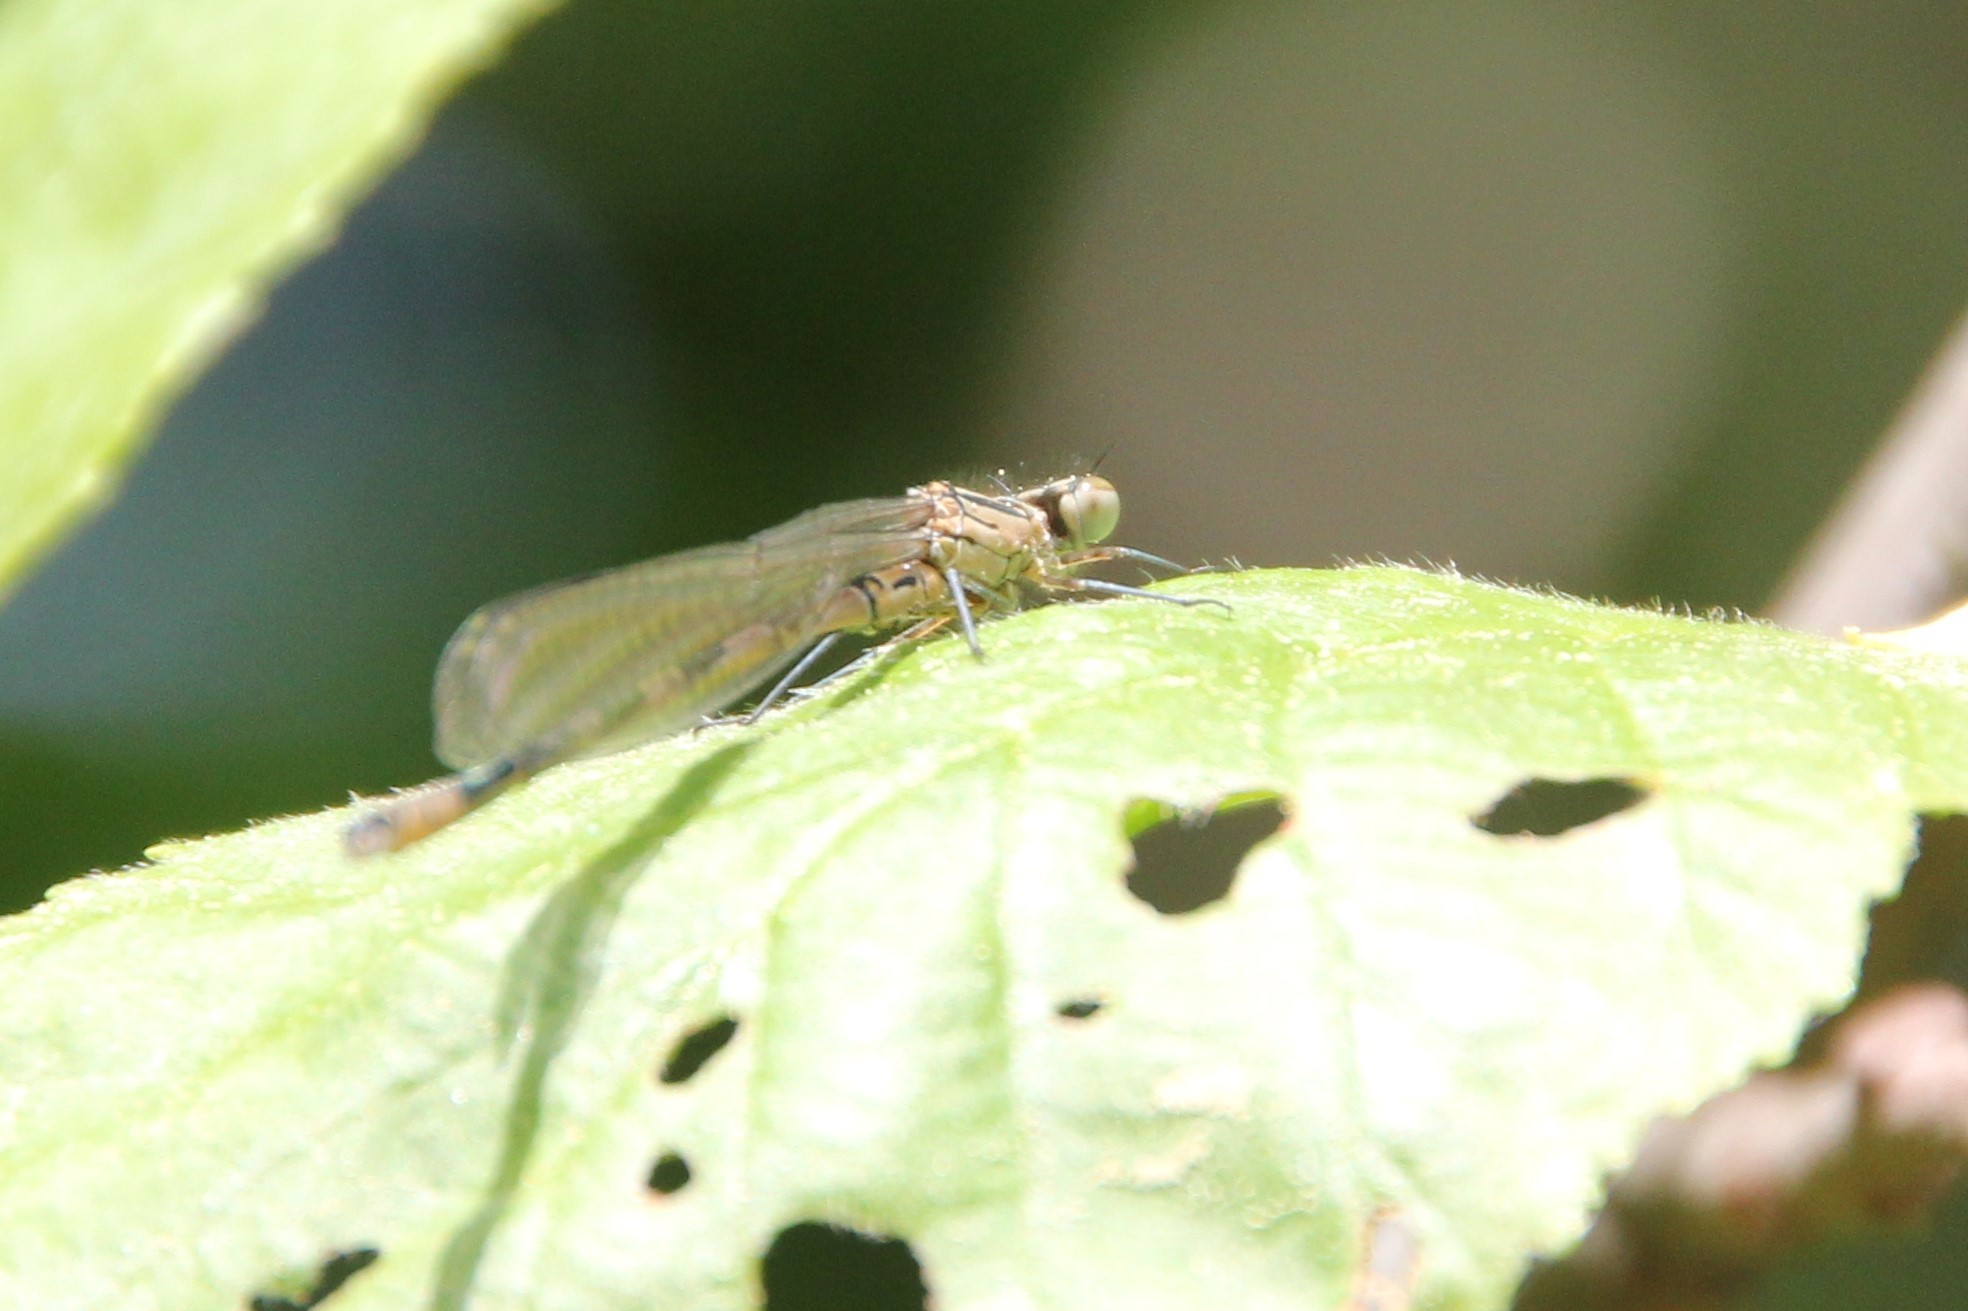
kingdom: Animalia
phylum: Arthropoda
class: Insecta
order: Odonata
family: Coenagrionidae
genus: Coenagrion
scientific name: Coenagrion hastulatum
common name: Spearhead bluet
